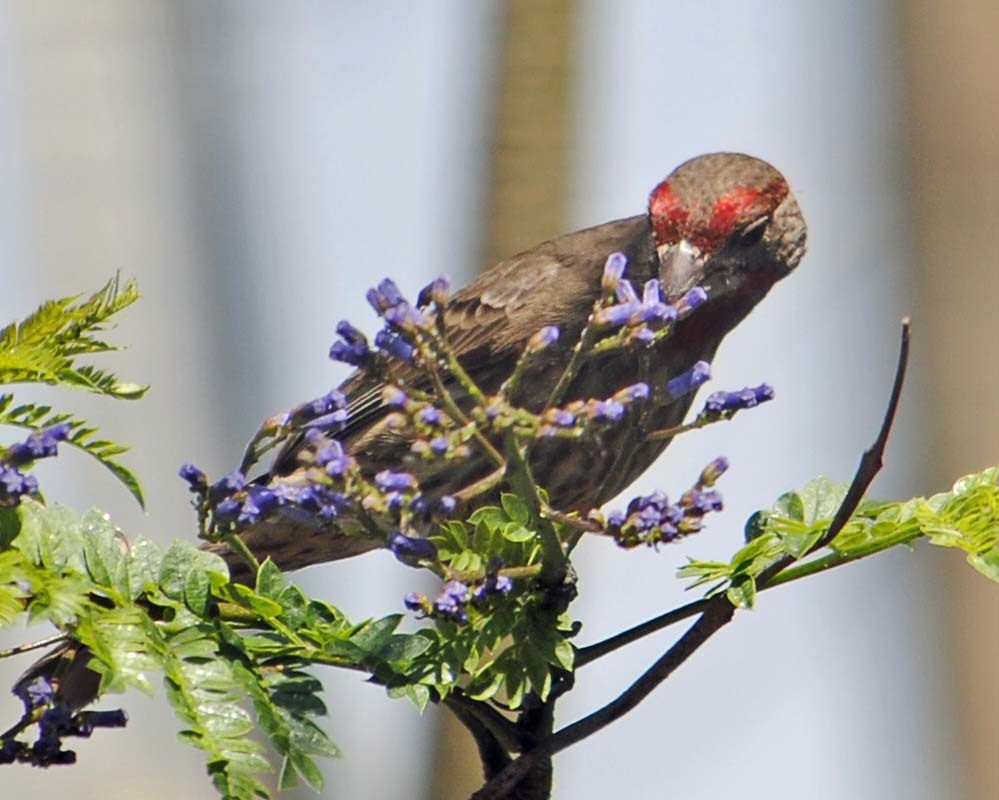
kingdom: Animalia
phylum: Chordata
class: Aves
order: Passeriformes
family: Fringillidae
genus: Haemorhous
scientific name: Haemorhous mexicanus
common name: House finch
